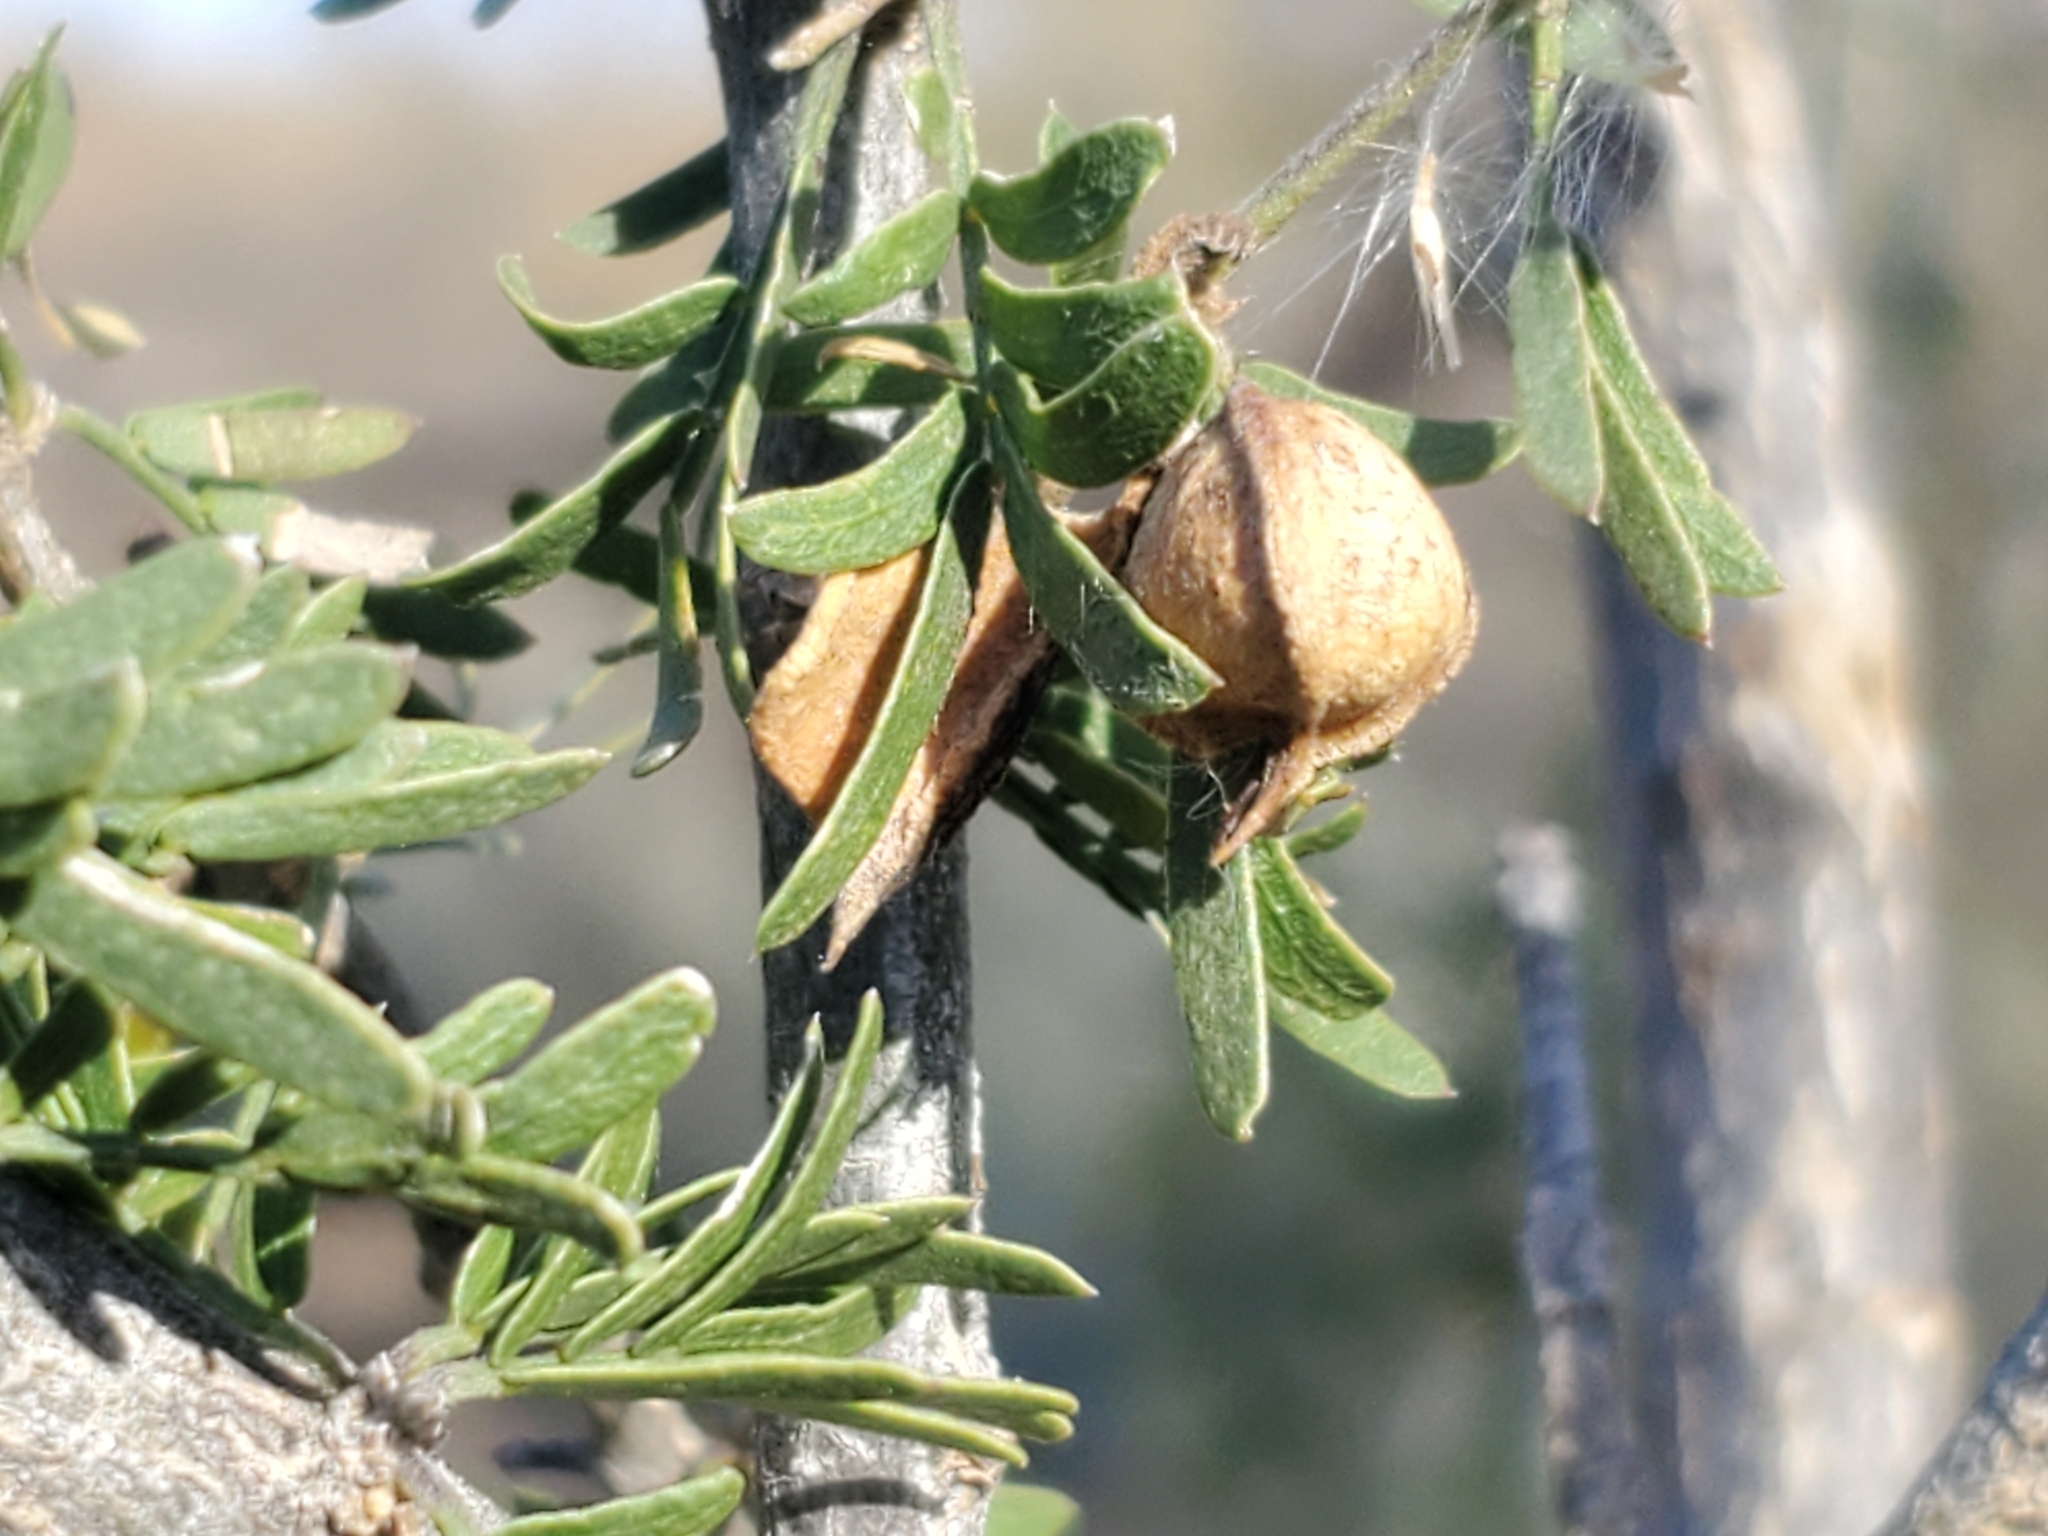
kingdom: Plantae
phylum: Tracheophyta
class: Magnoliopsida
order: Zygophyllales
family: Zygophyllaceae
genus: Porlieria
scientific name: Porlieria angustifolia
